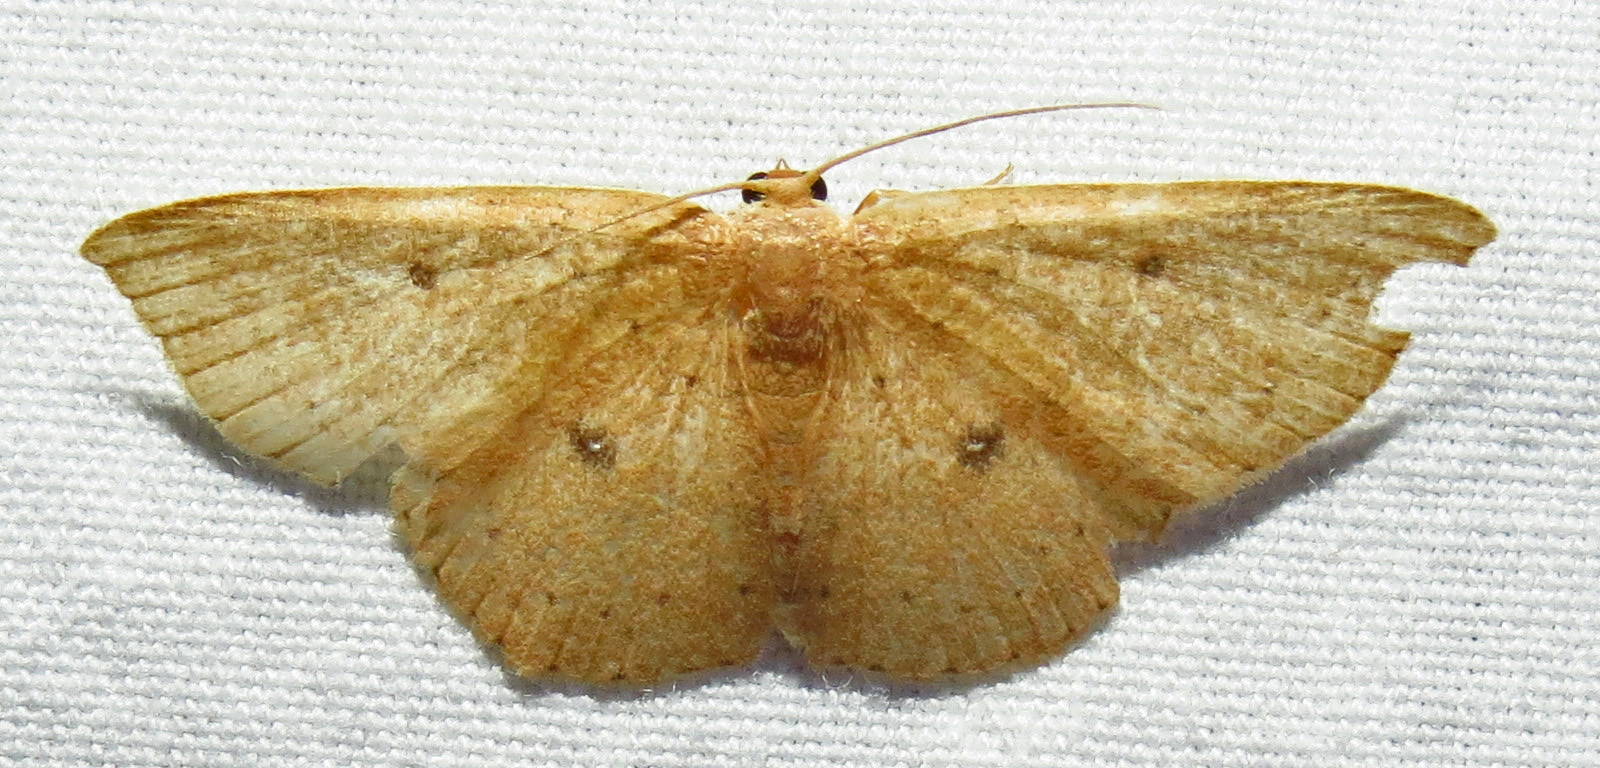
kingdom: Animalia
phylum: Arthropoda
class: Insecta
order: Lepidoptera
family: Geometridae
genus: Cyclophora
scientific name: Cyclophora packardi
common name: Packard's wave
